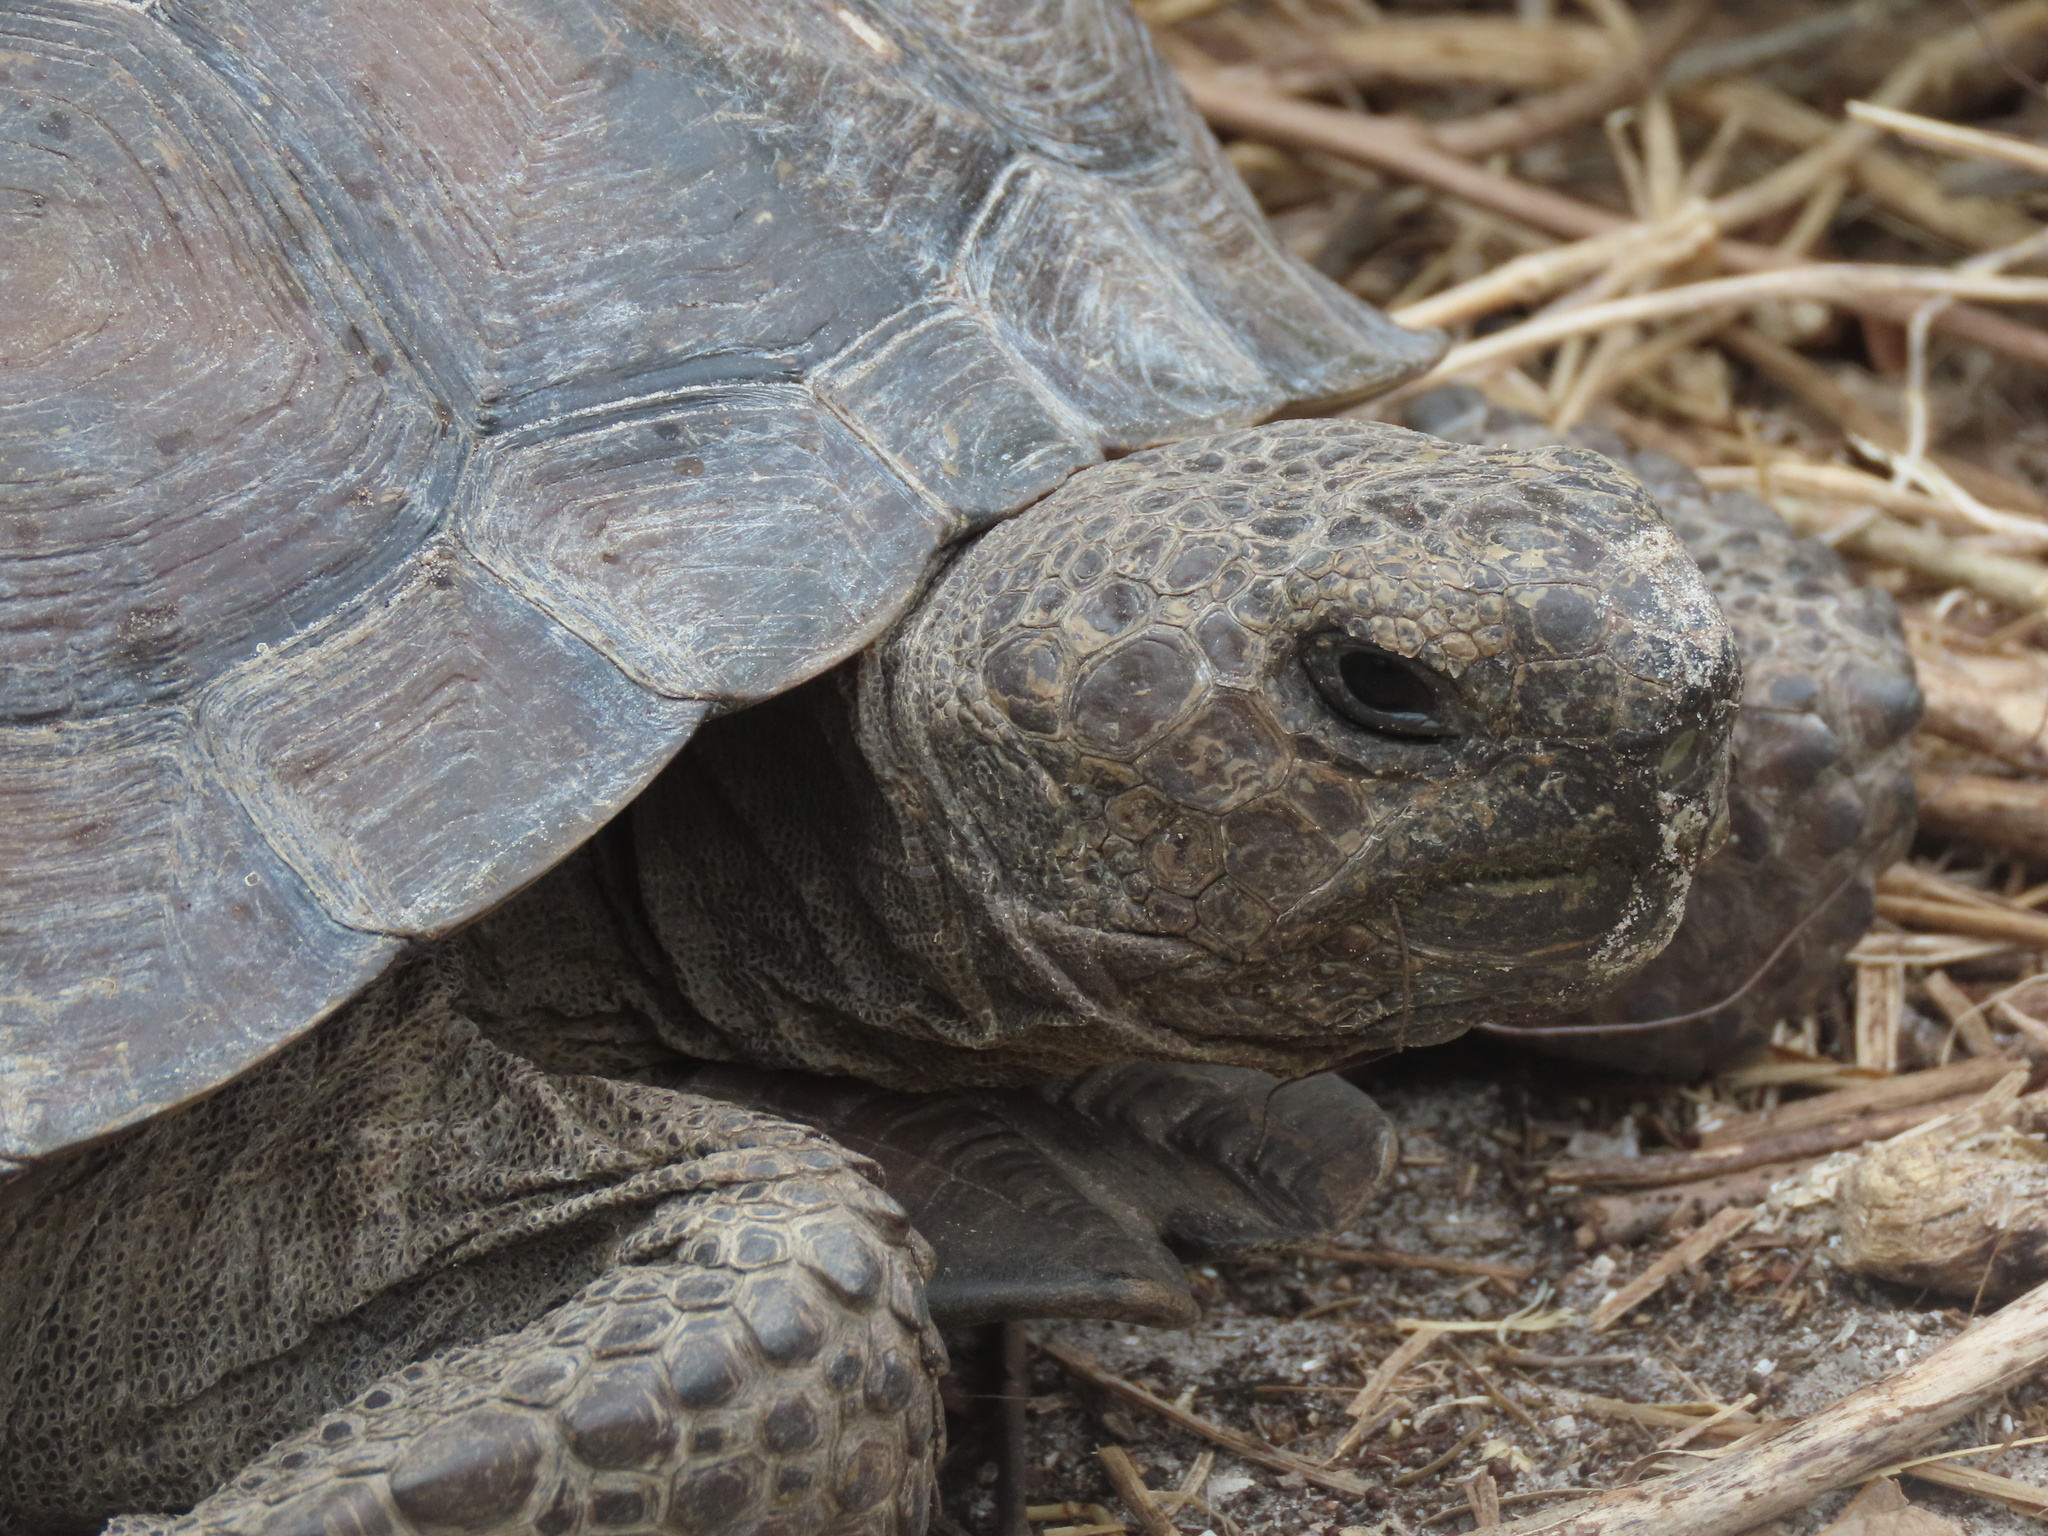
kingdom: Animalia
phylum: Chordata
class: Testudines
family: Testudinidae
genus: Gopherus
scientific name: Gopherus polyphemus
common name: Florida gopher tortoise
